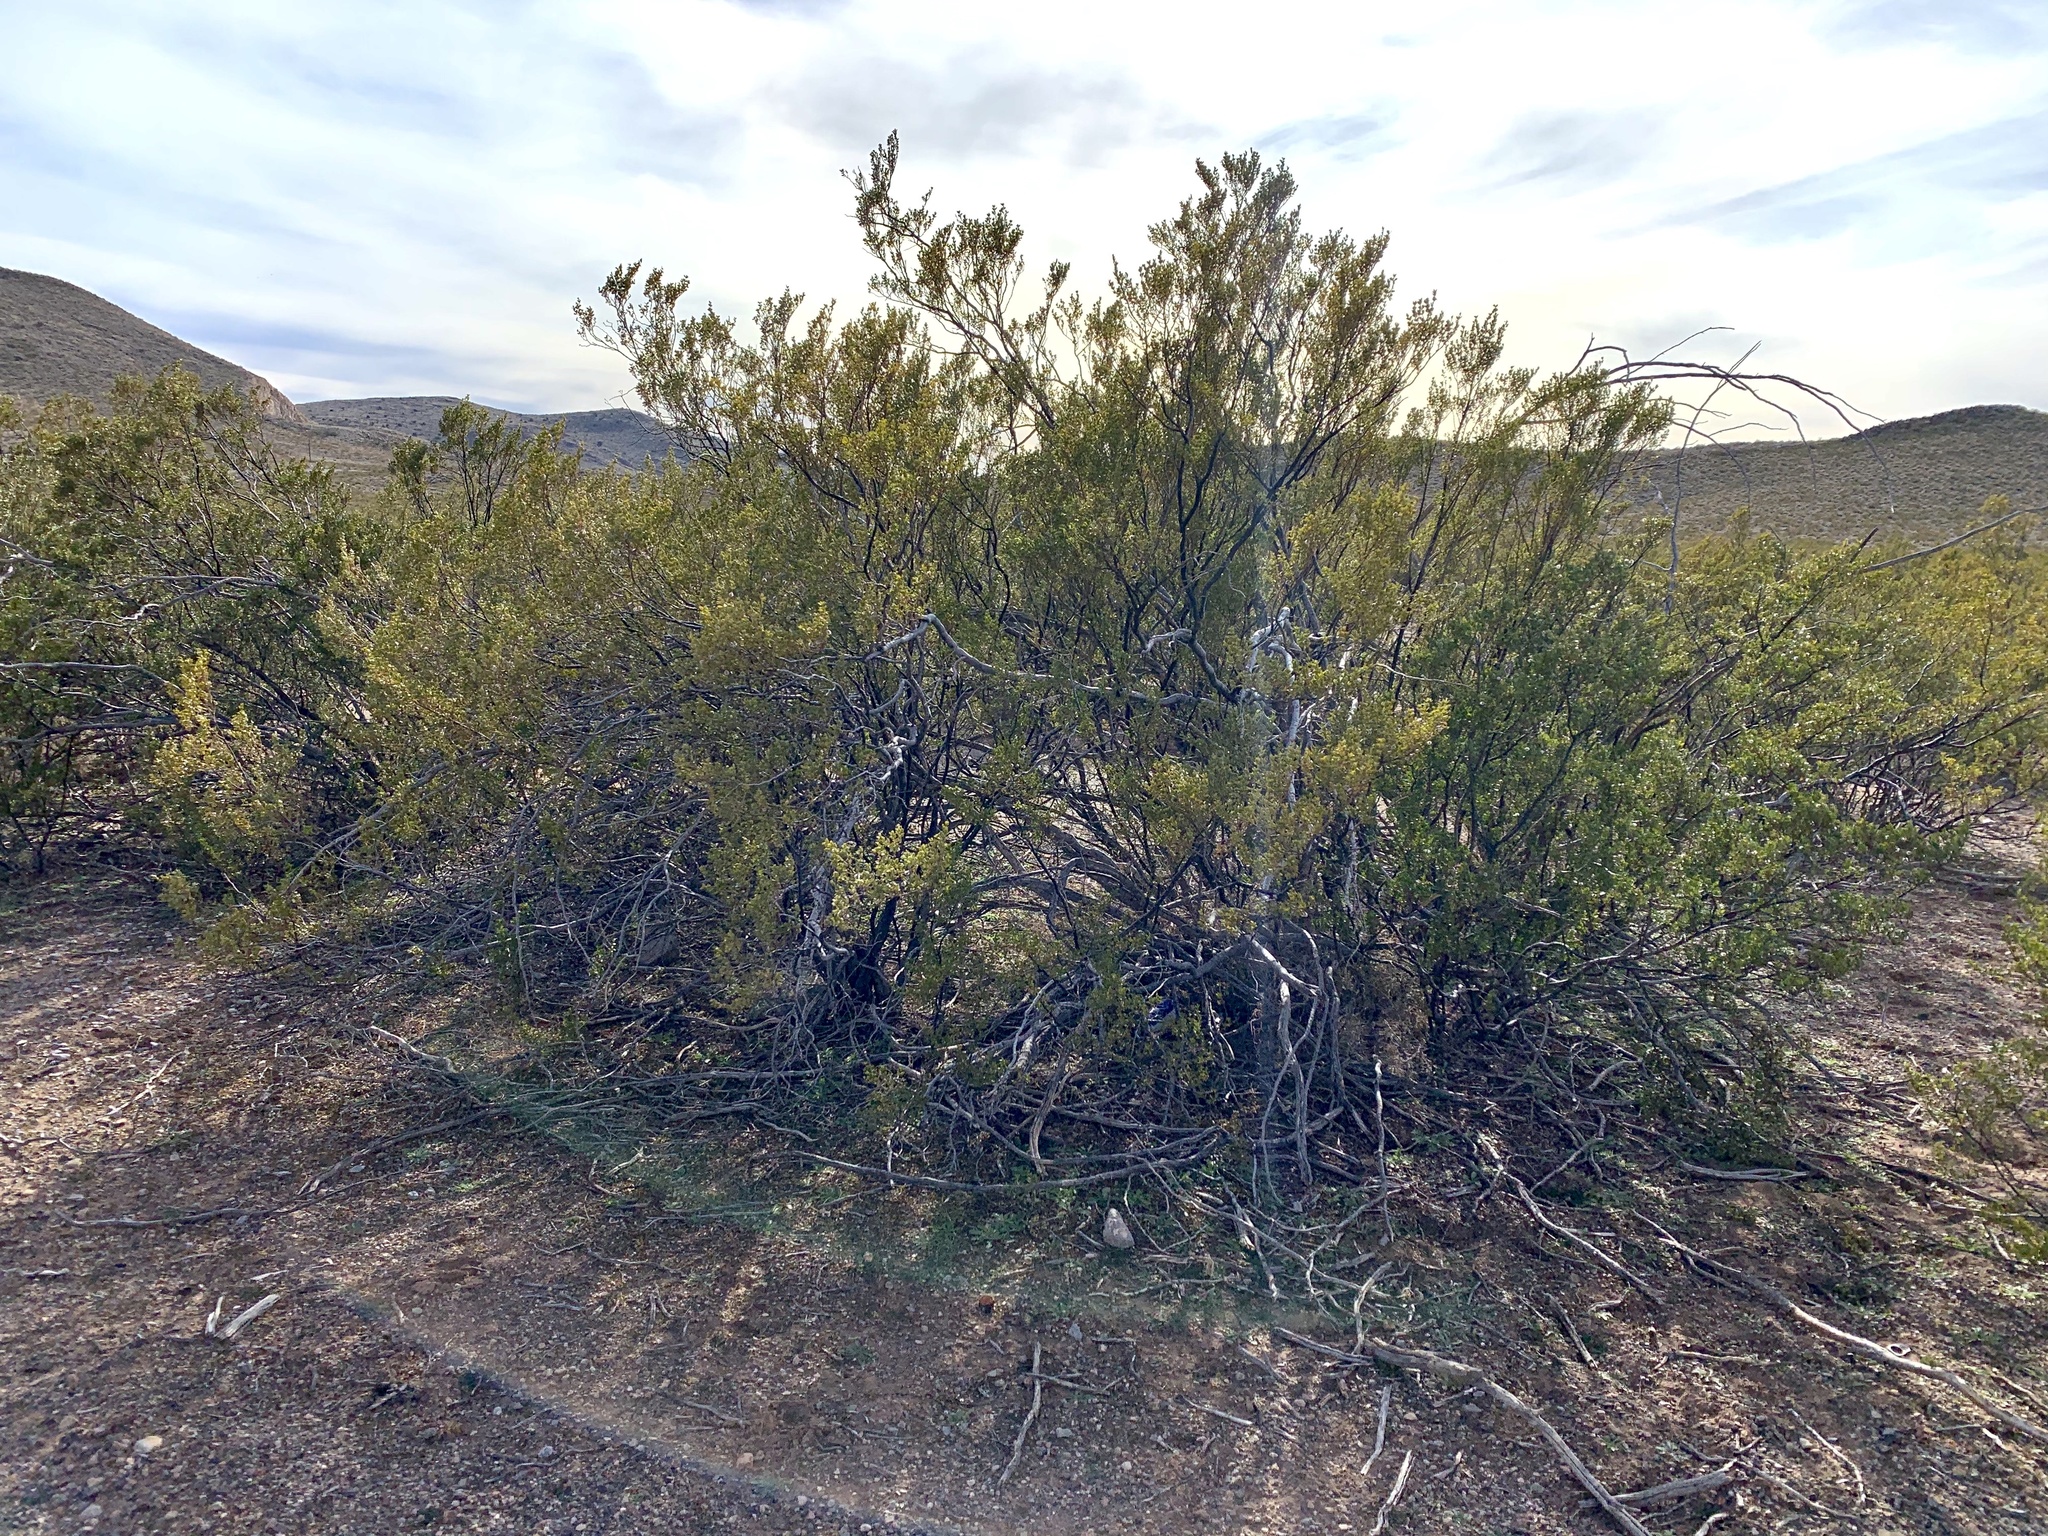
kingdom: Plantae
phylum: Tracheophyta
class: Magnoliopsida
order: Zygophyllales
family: Zygophyllaceae
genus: Larrea
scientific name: Larrea tridentata
